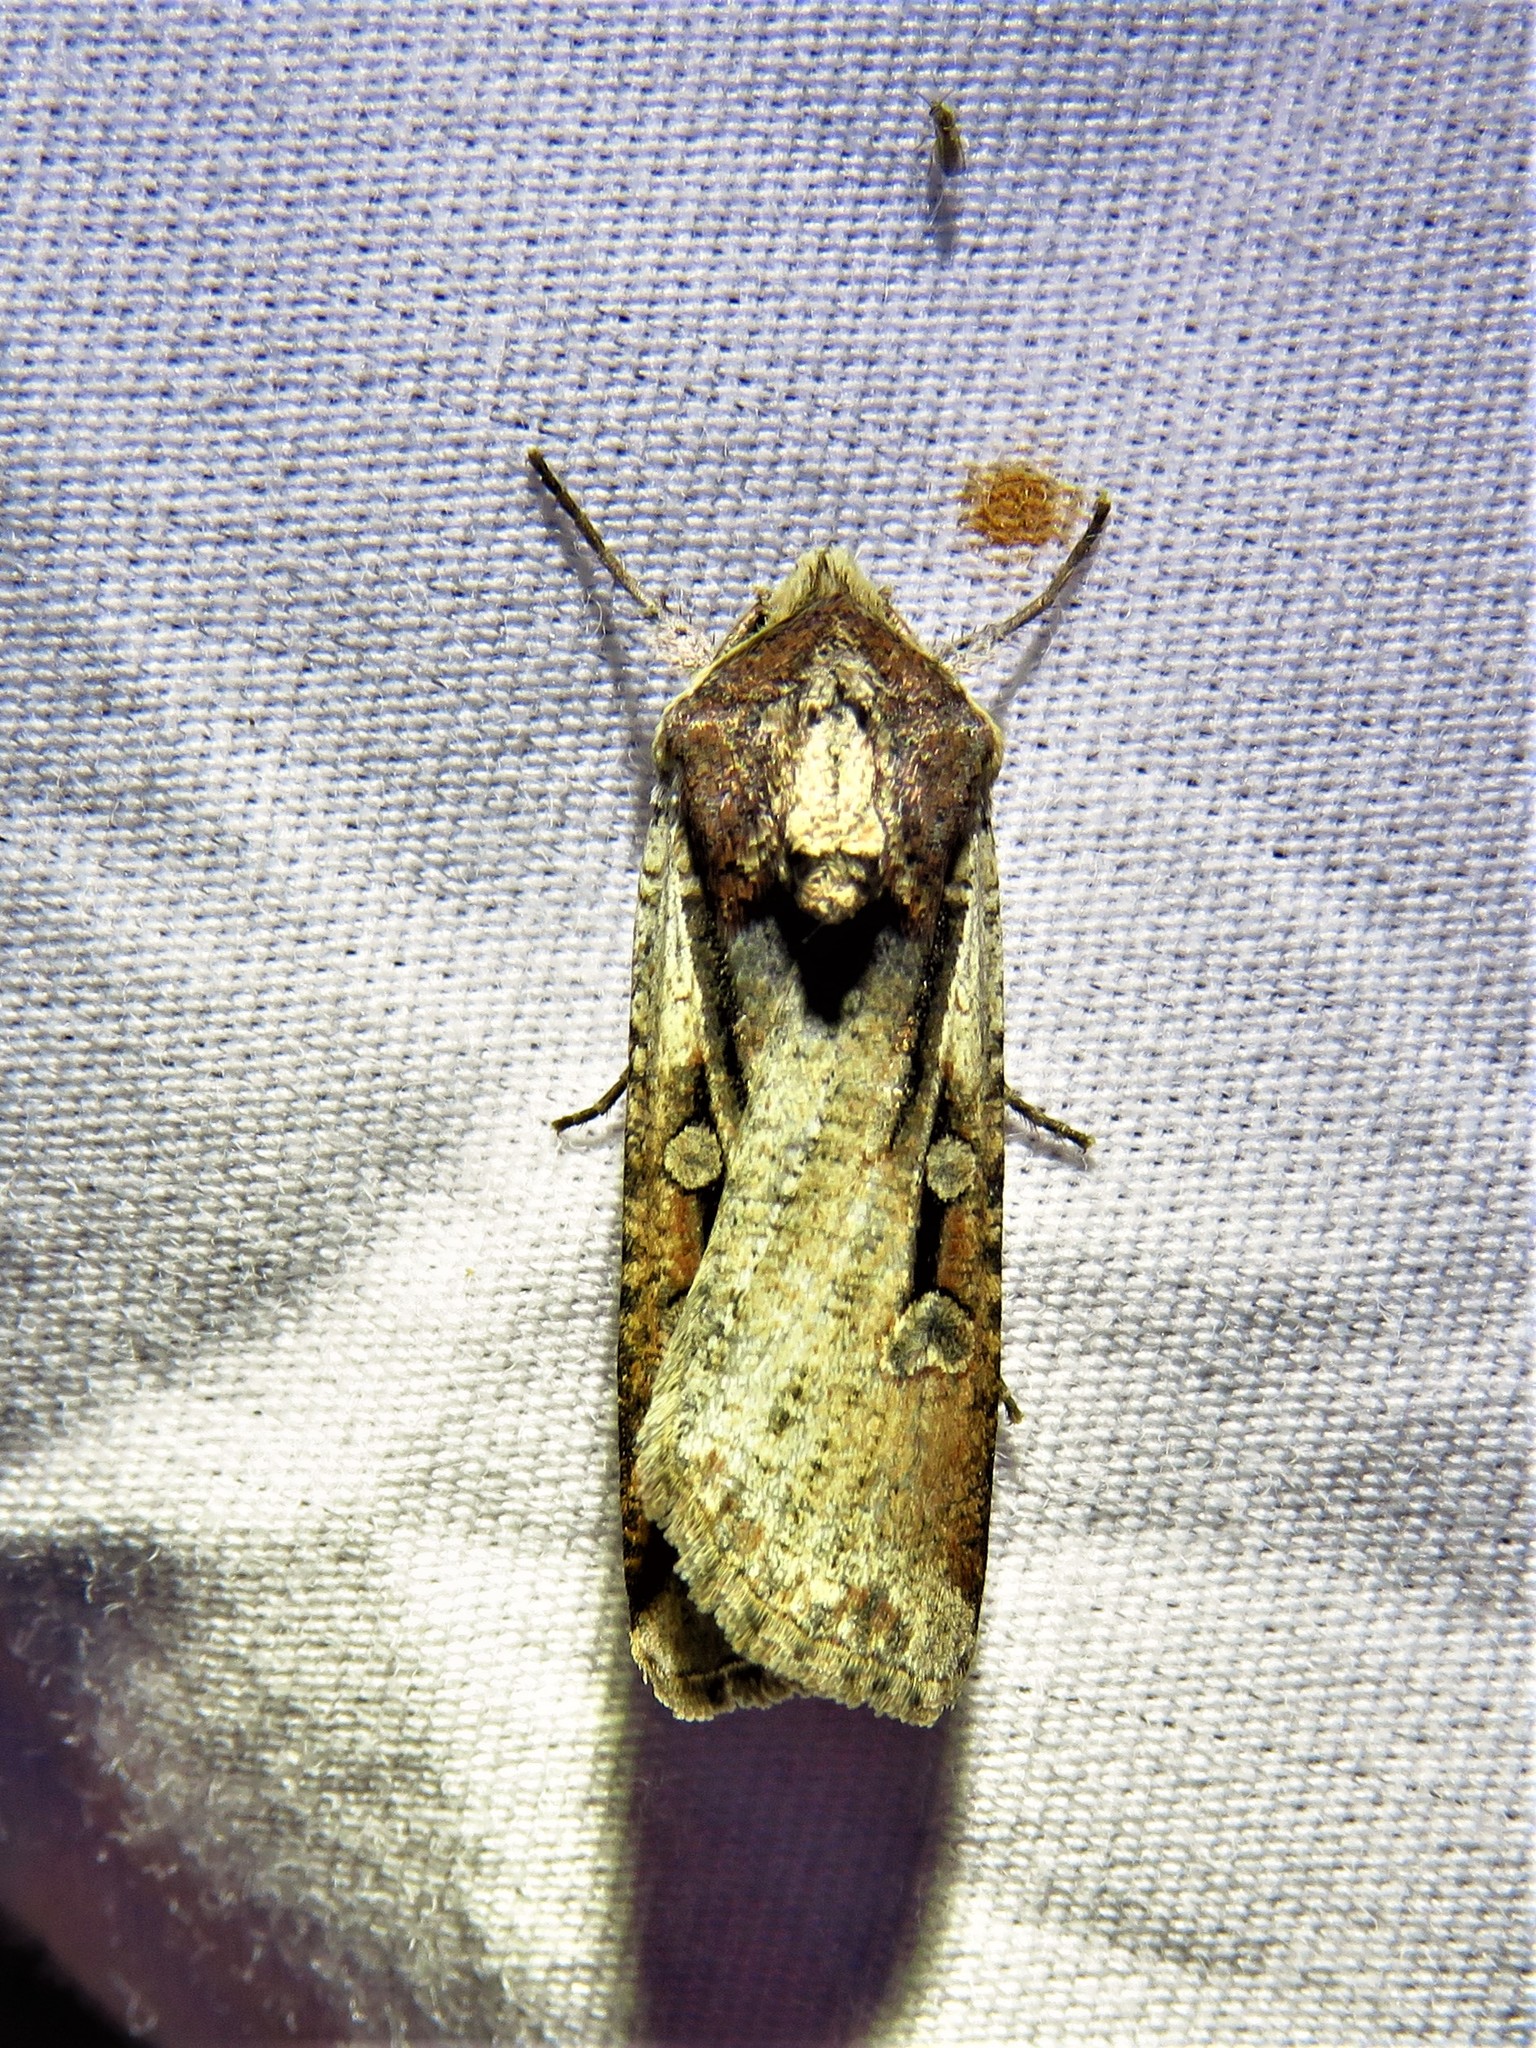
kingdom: Animalia
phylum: Arthropoda
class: Insecta
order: Lepidoptera
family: Noctuidae
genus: Hemieuxoa
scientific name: Hemieuxoa rudens
